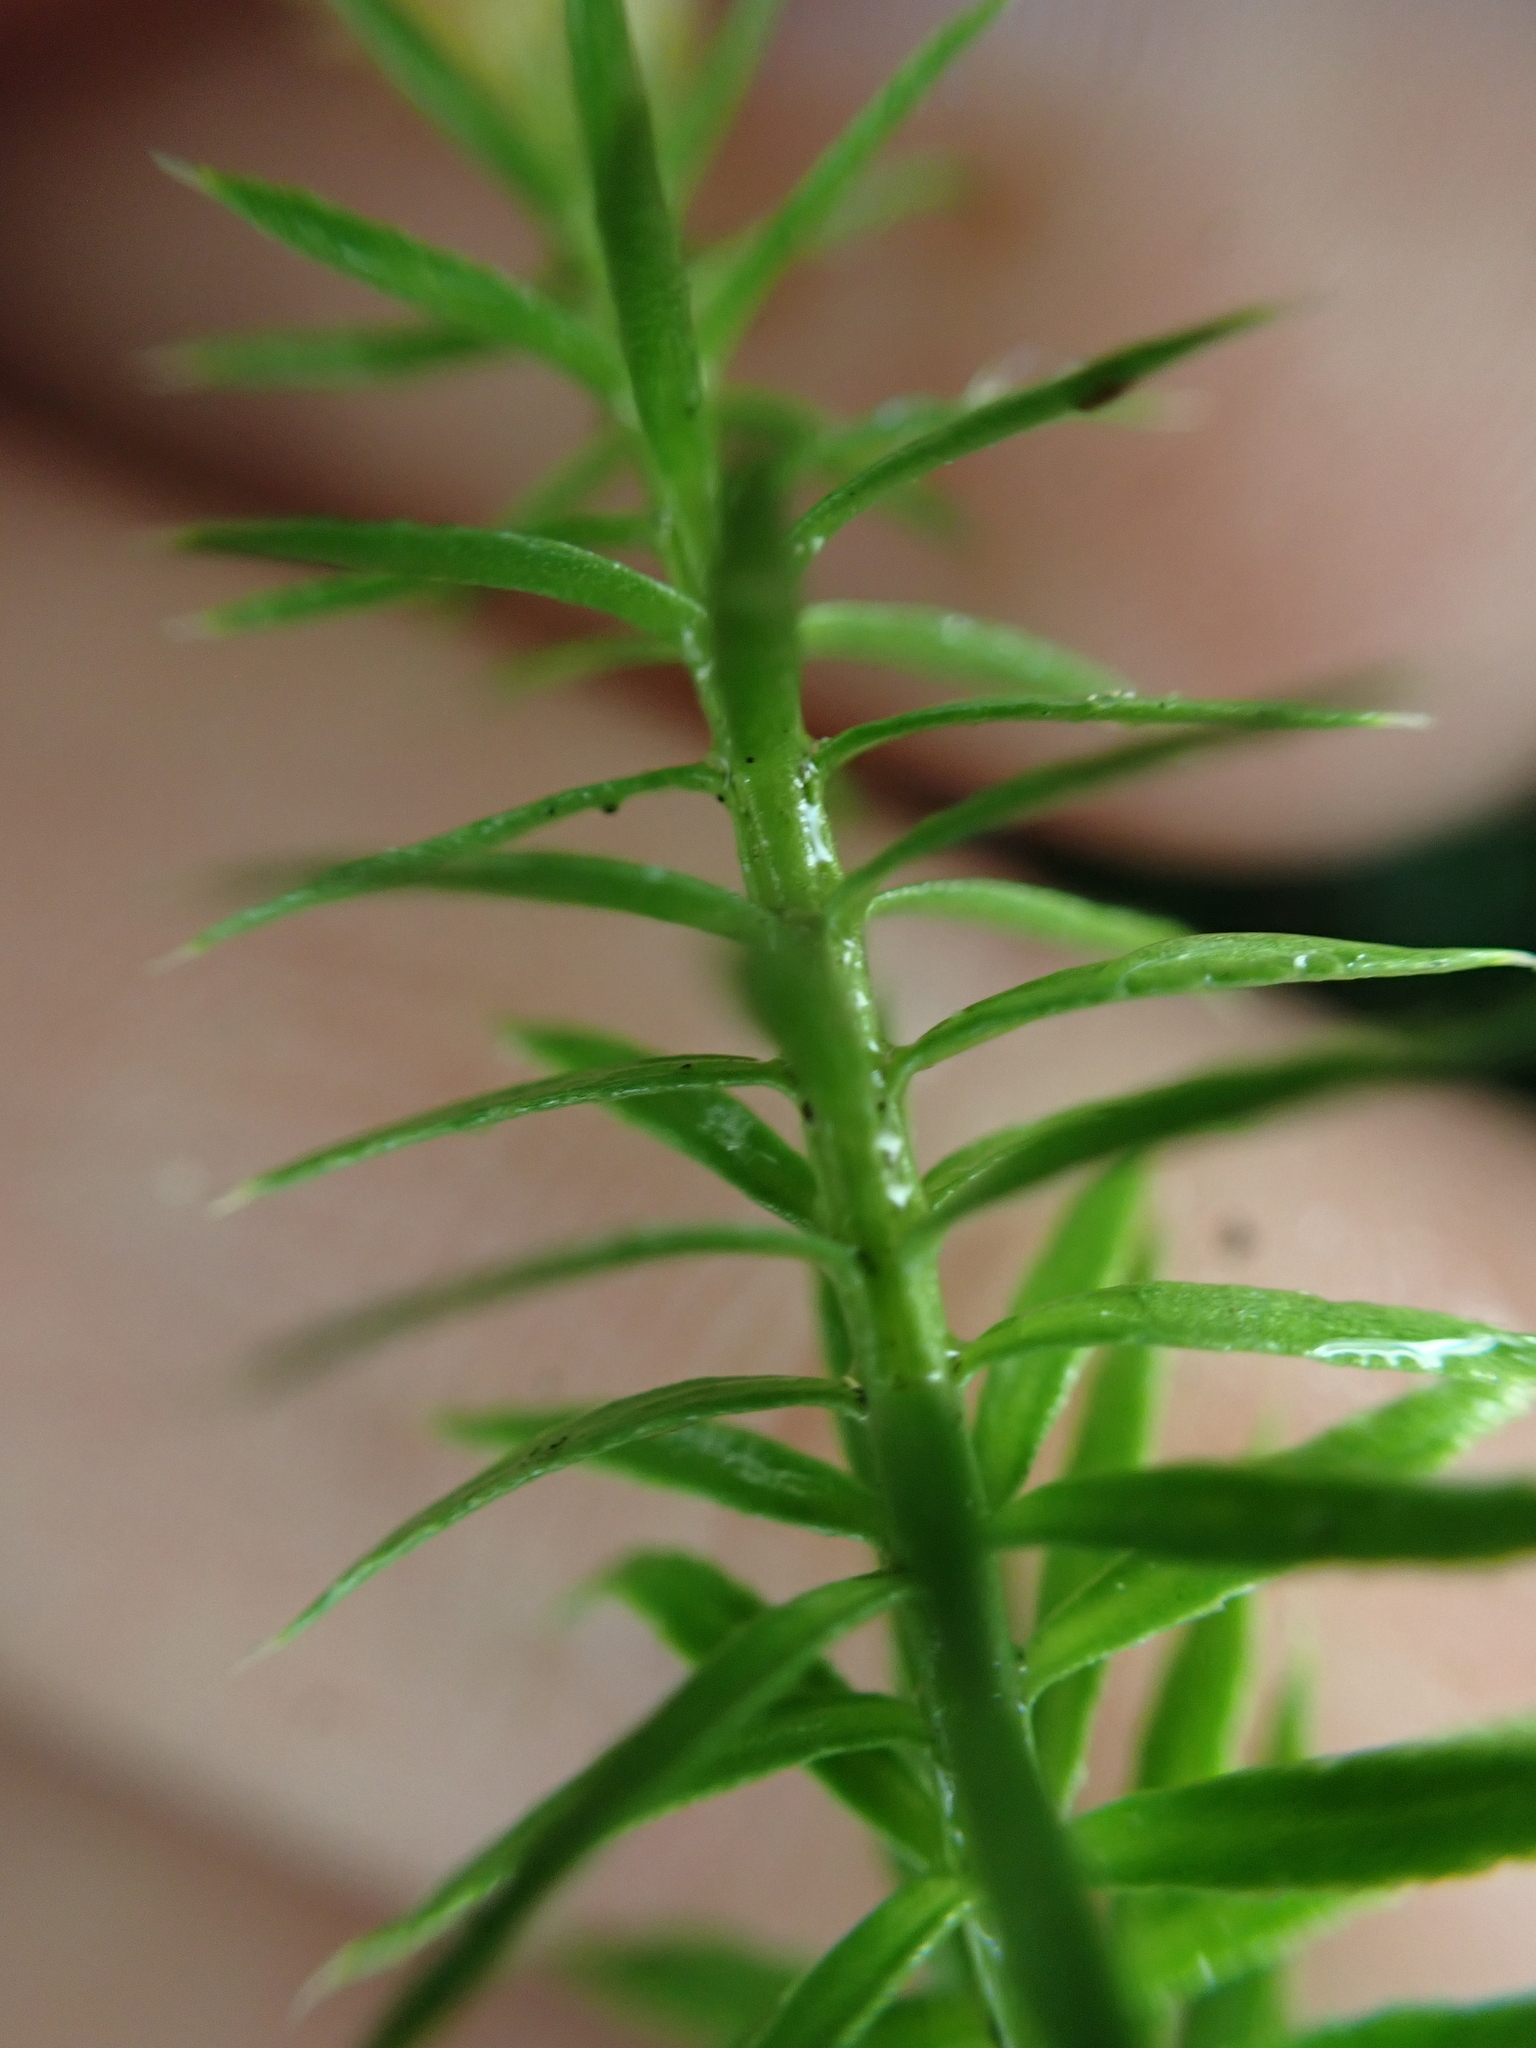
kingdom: Plantae
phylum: Tracheophyta
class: Lycopodiopsida
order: Lycopodiales
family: Lycopodiaceae
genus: Spinulum
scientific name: Spinulum annotinum
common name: Interrupted club-moss
